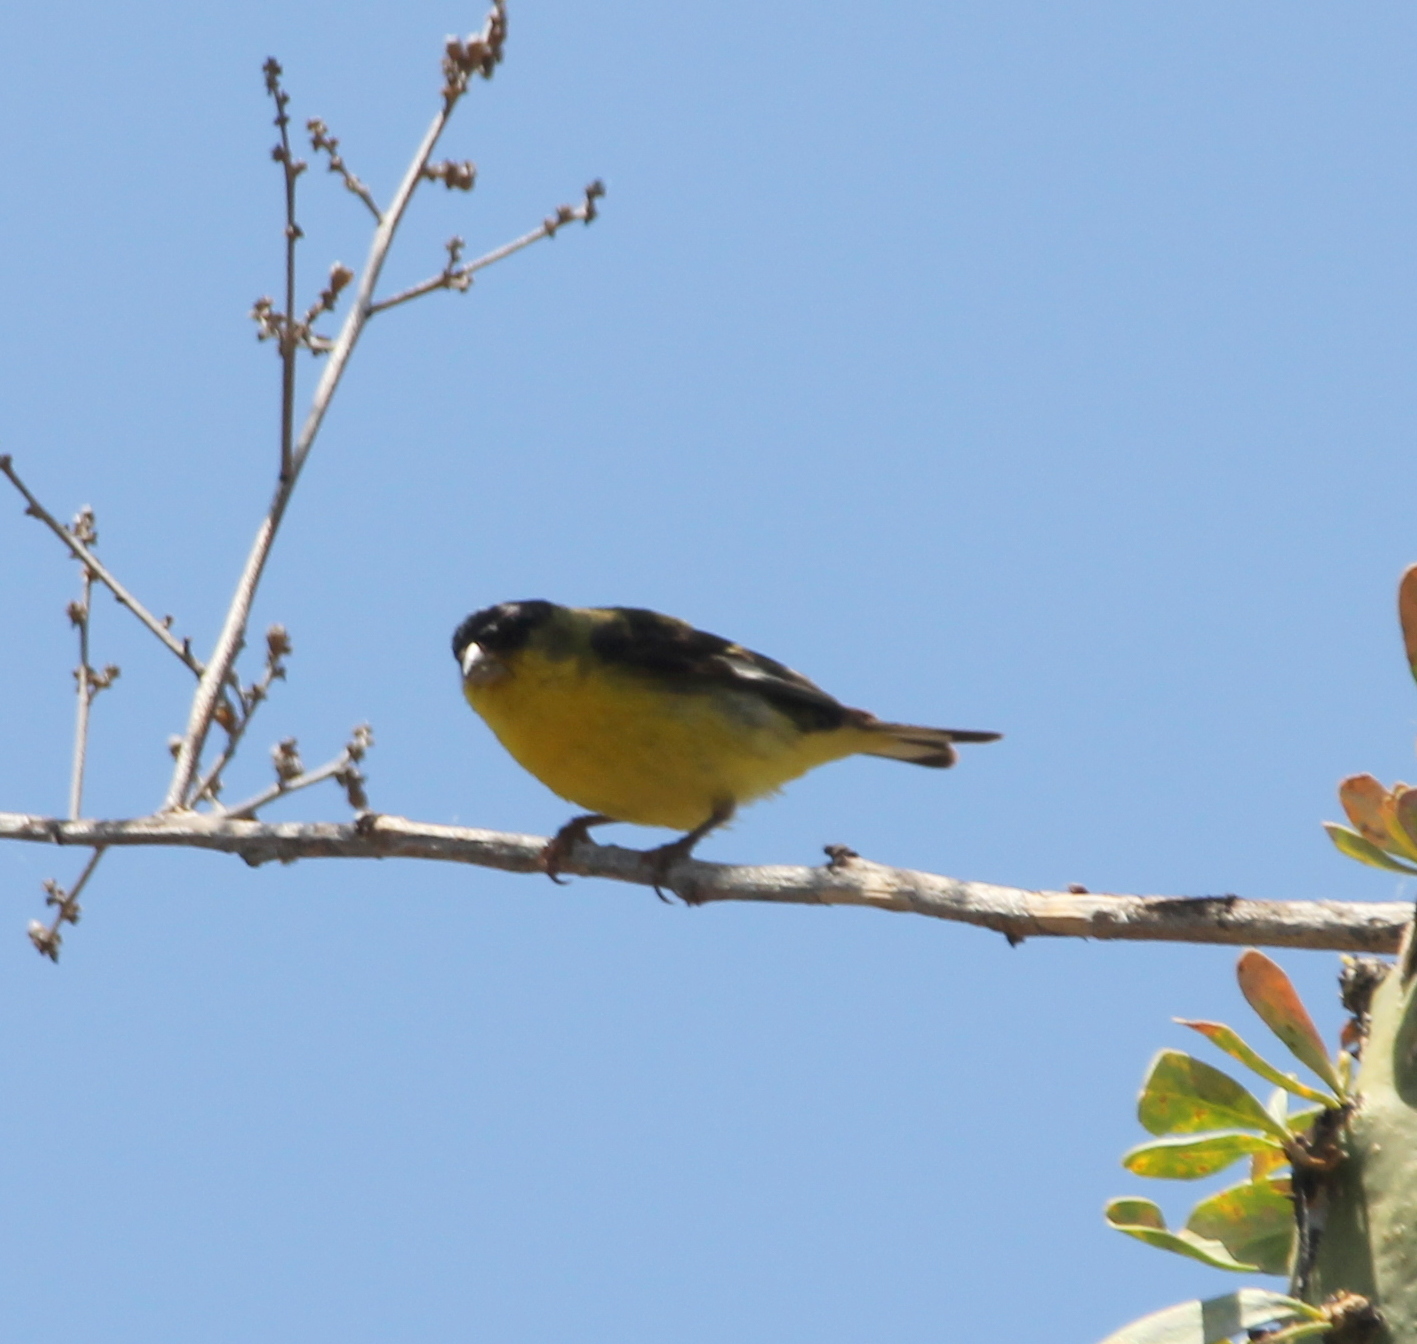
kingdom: Animalia
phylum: Chordata
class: Aves
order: Passeriformes
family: Fringillidae
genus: Spinus
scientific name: Spinus psaltria
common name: Lesser goldfinch
